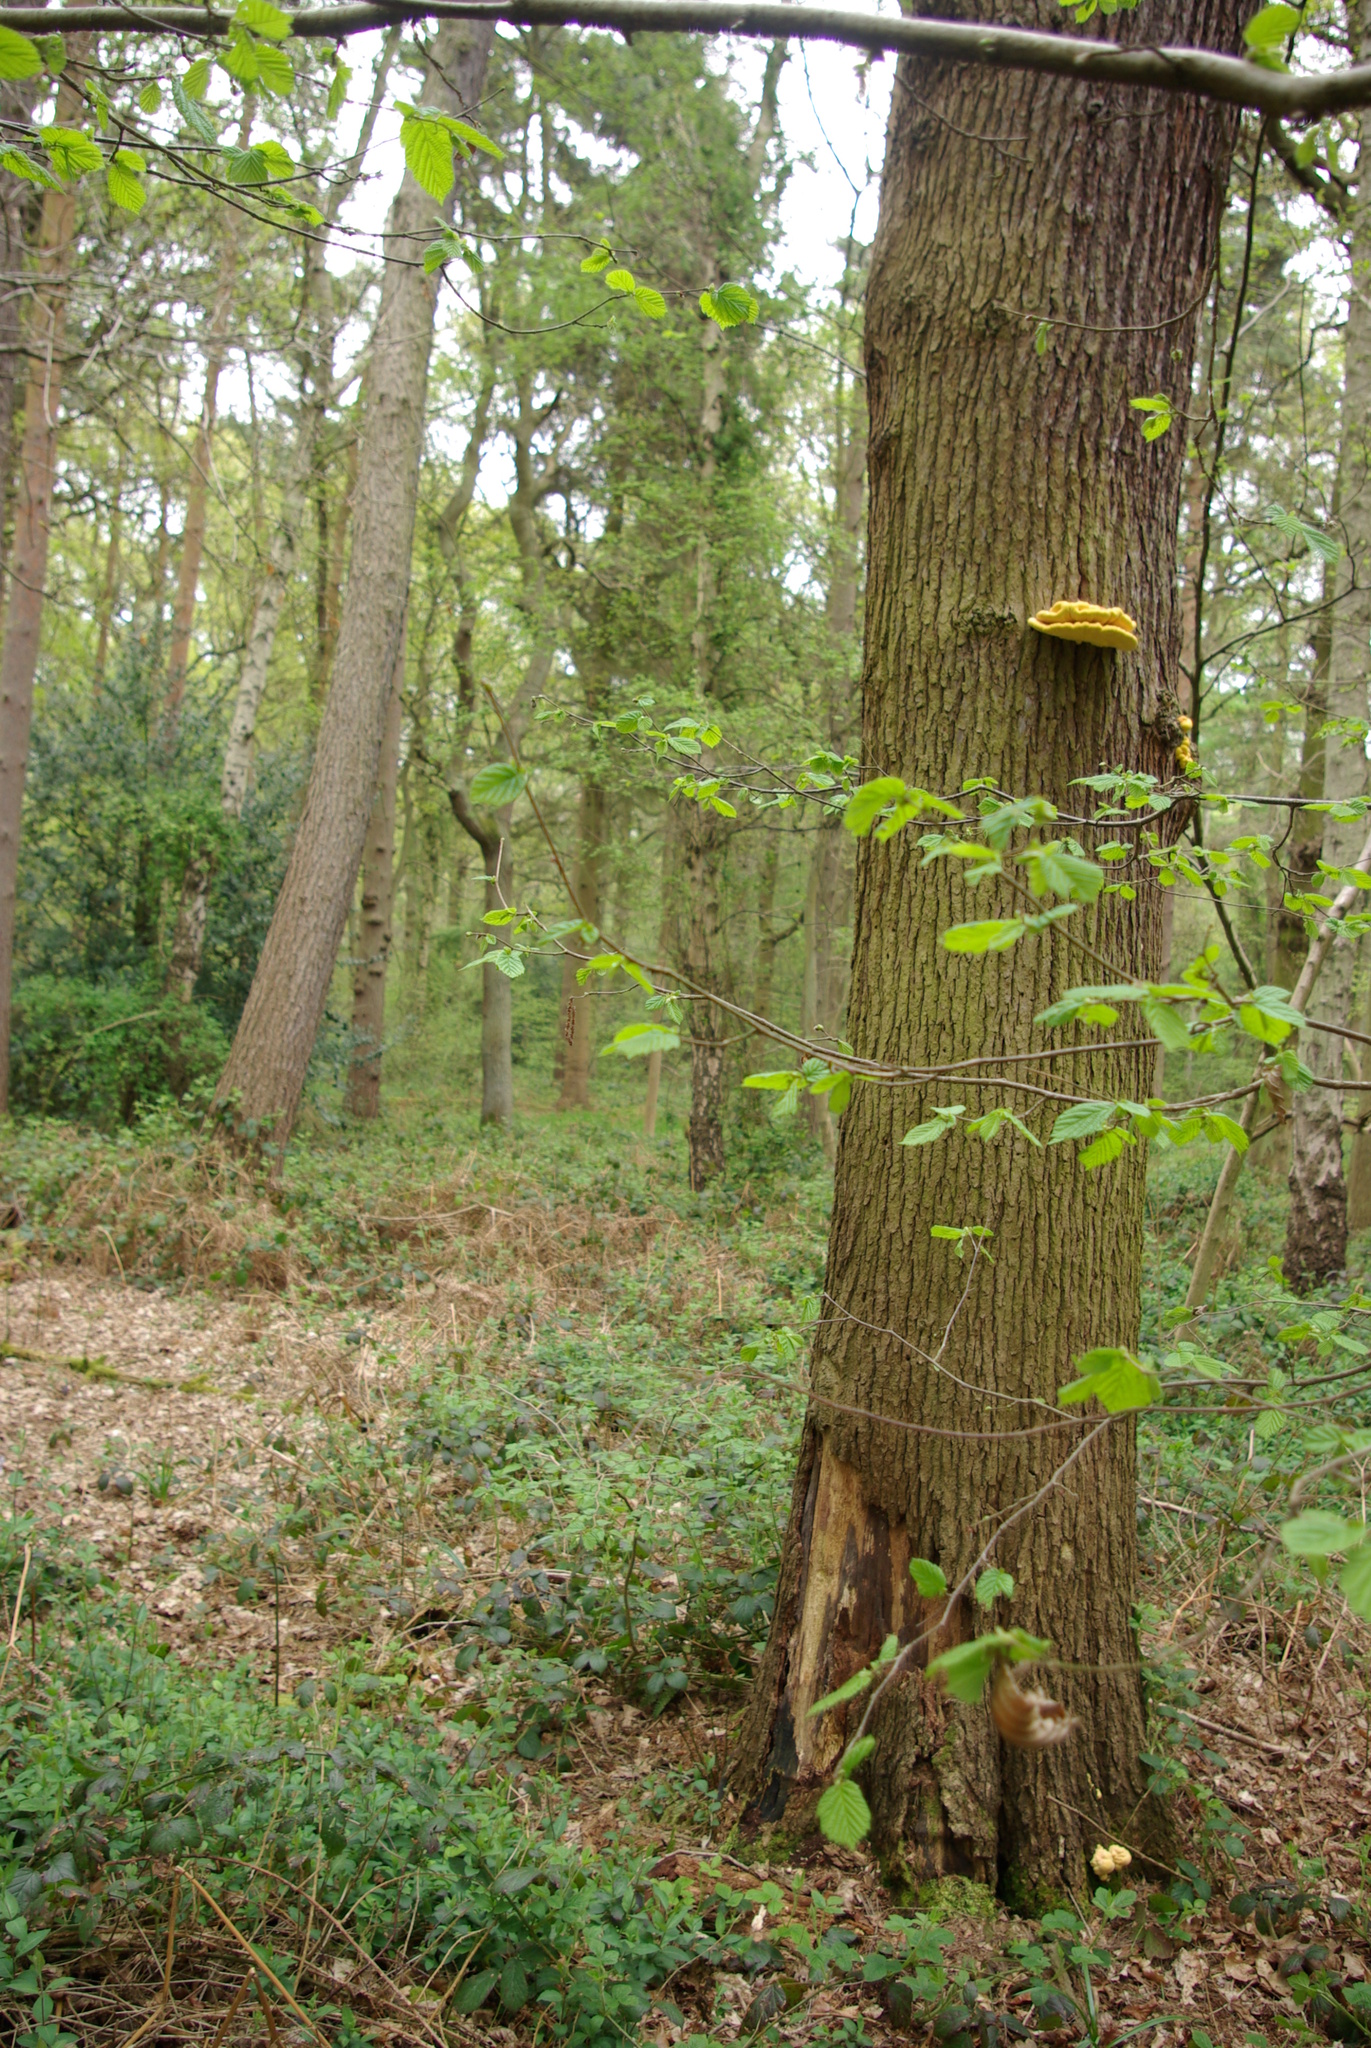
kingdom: Fungi
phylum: Basidiomycota
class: Agaricomycetes
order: Polyporales
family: Laetiporaceae
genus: Laetiporus
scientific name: Laetiporus sulphureus
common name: Chicken of the woods
